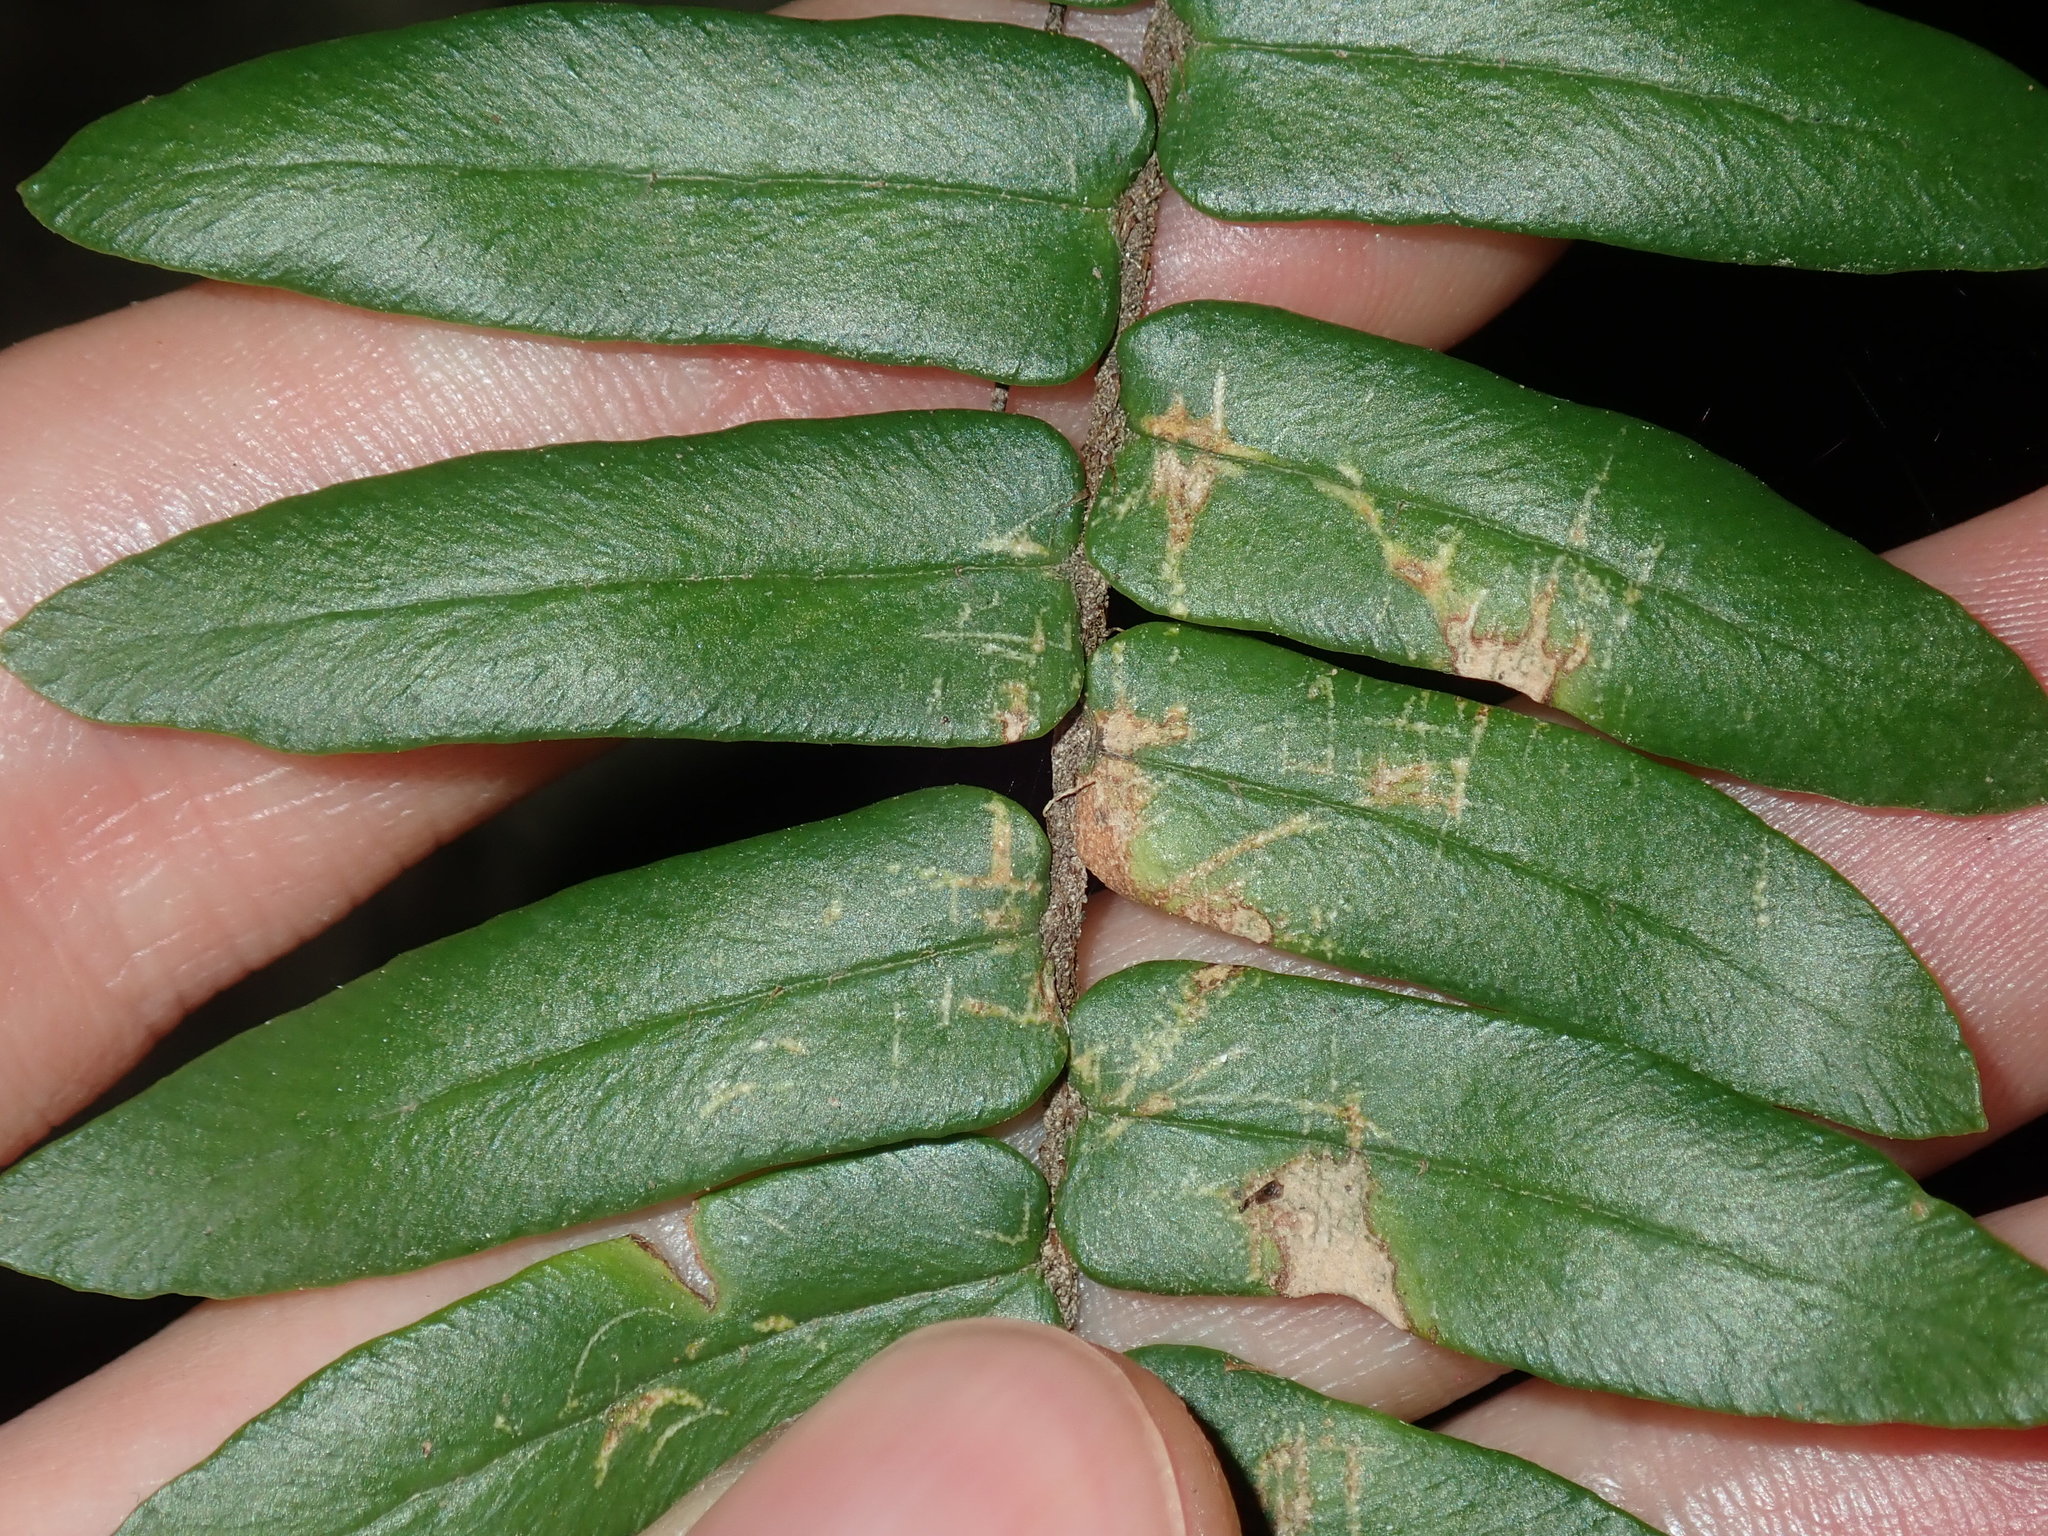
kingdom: Plantae
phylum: Tracheophyta
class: Polypodiopsida
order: Polypodiales
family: Pteridaceae
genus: Pellaea
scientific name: Pellaea falcata
